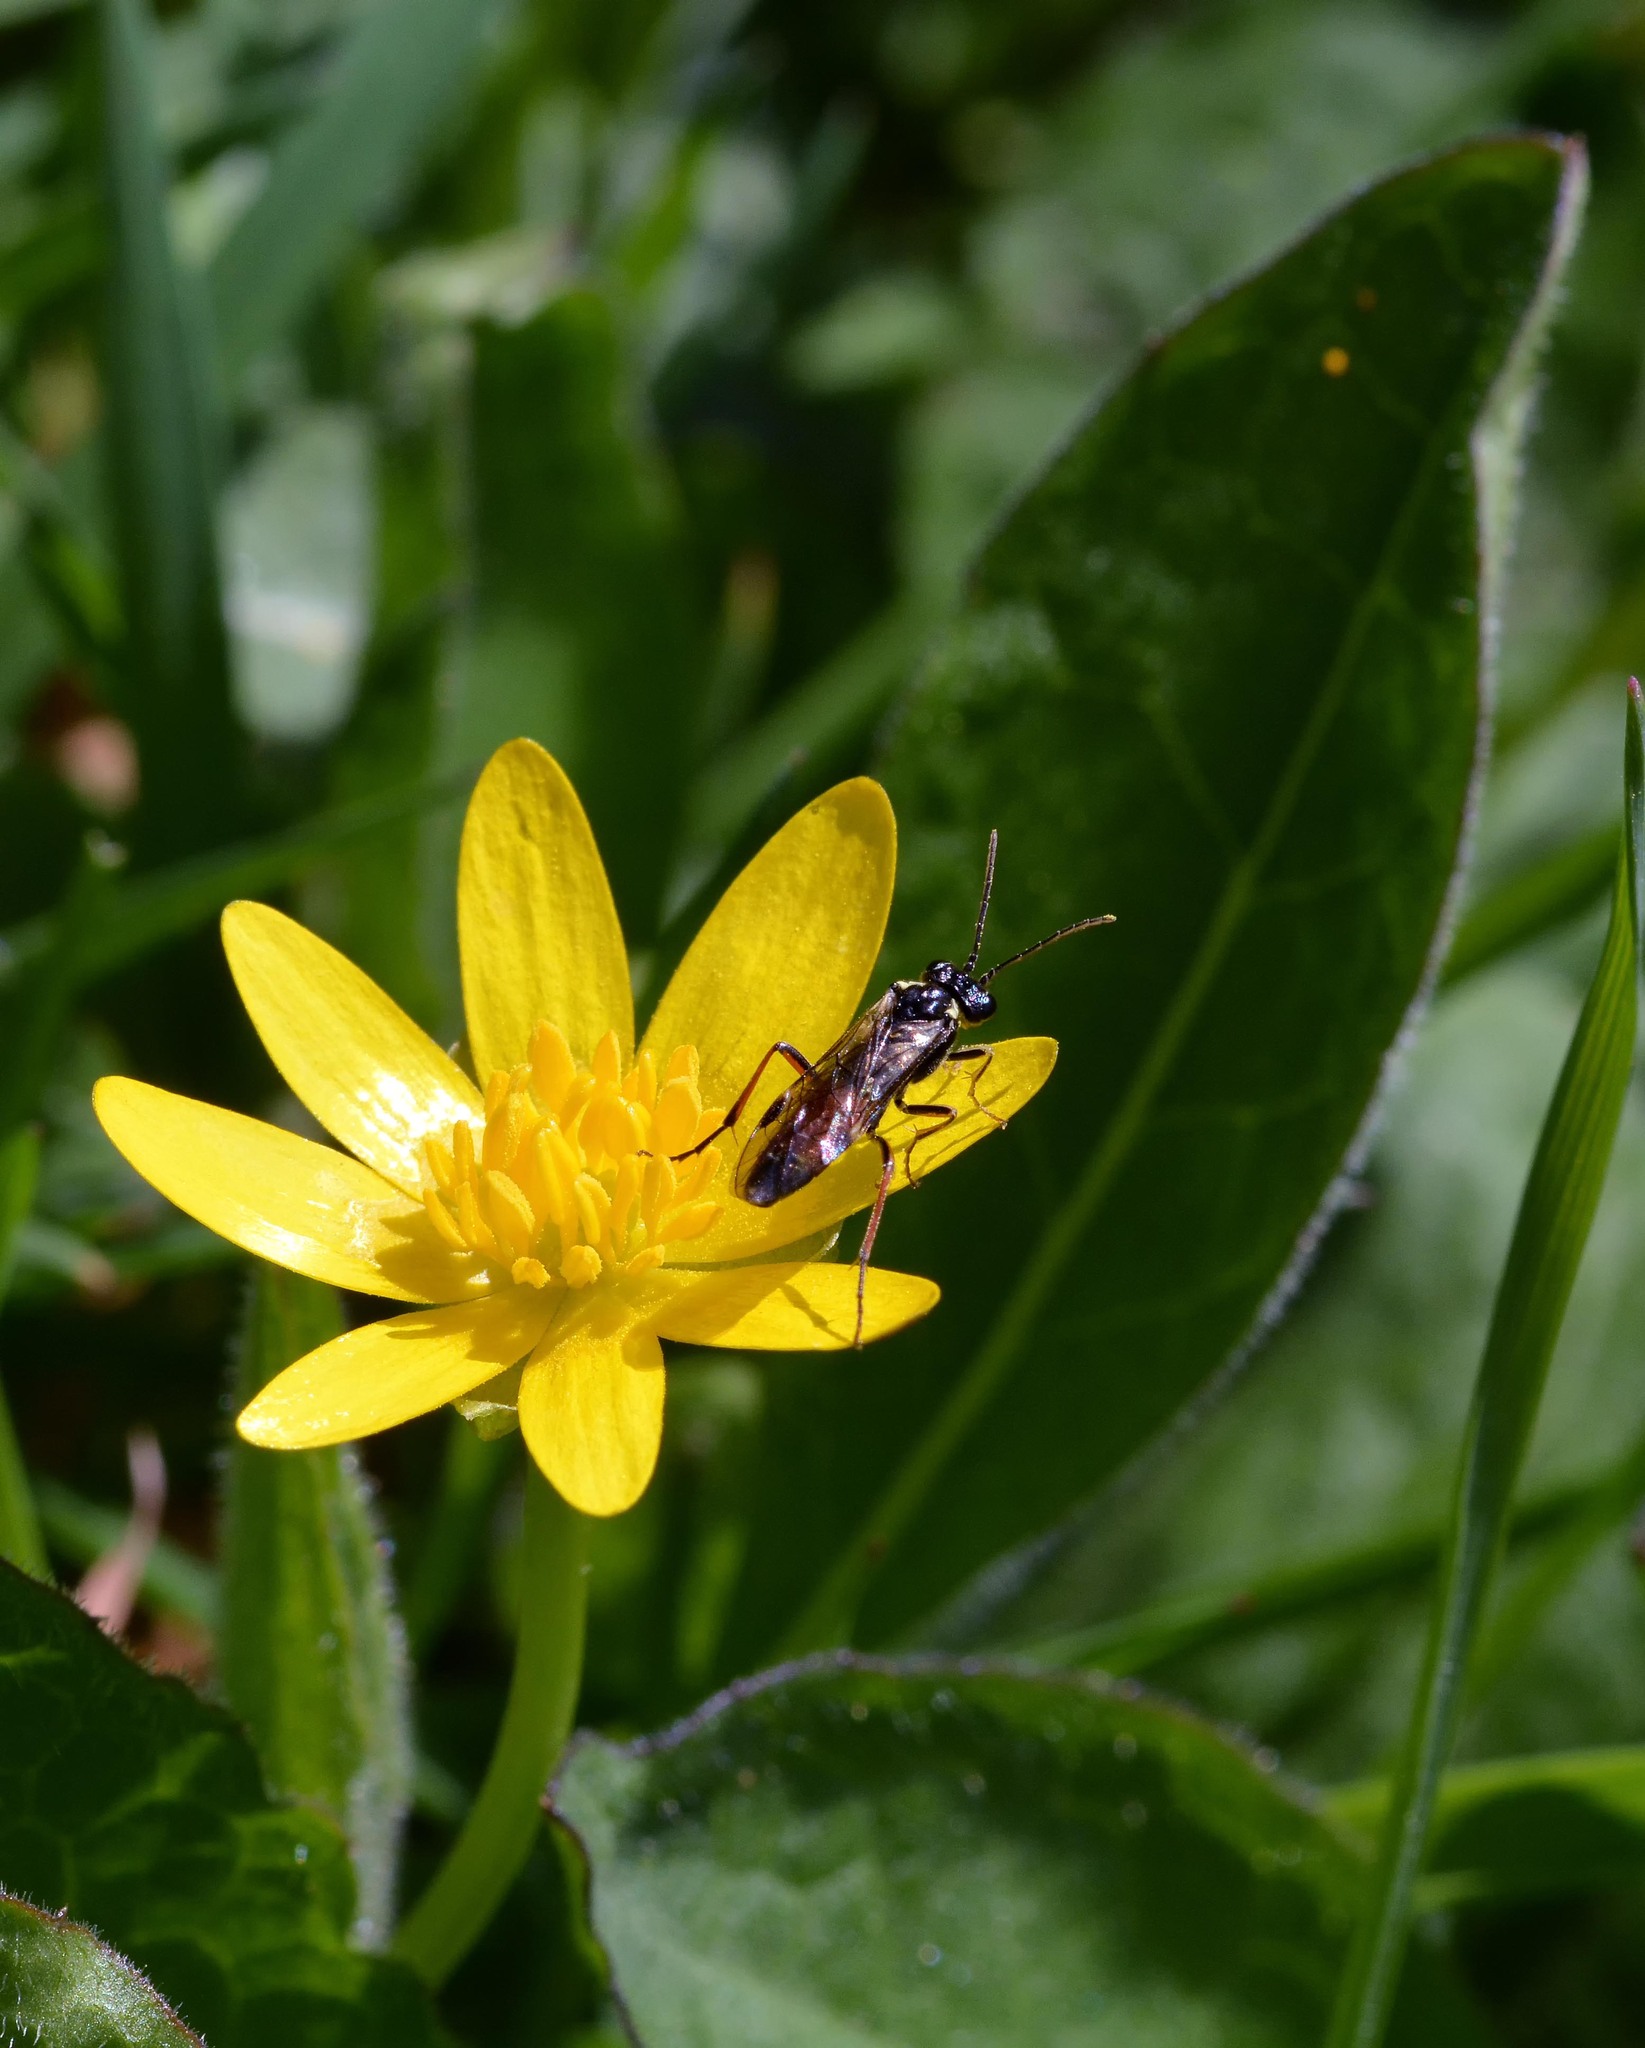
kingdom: Animalia
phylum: Arthropoda
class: Insecta
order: Hymenoptera
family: Tenthredinidae
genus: Aglaostigma
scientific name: Aglaostigma aucupariae
